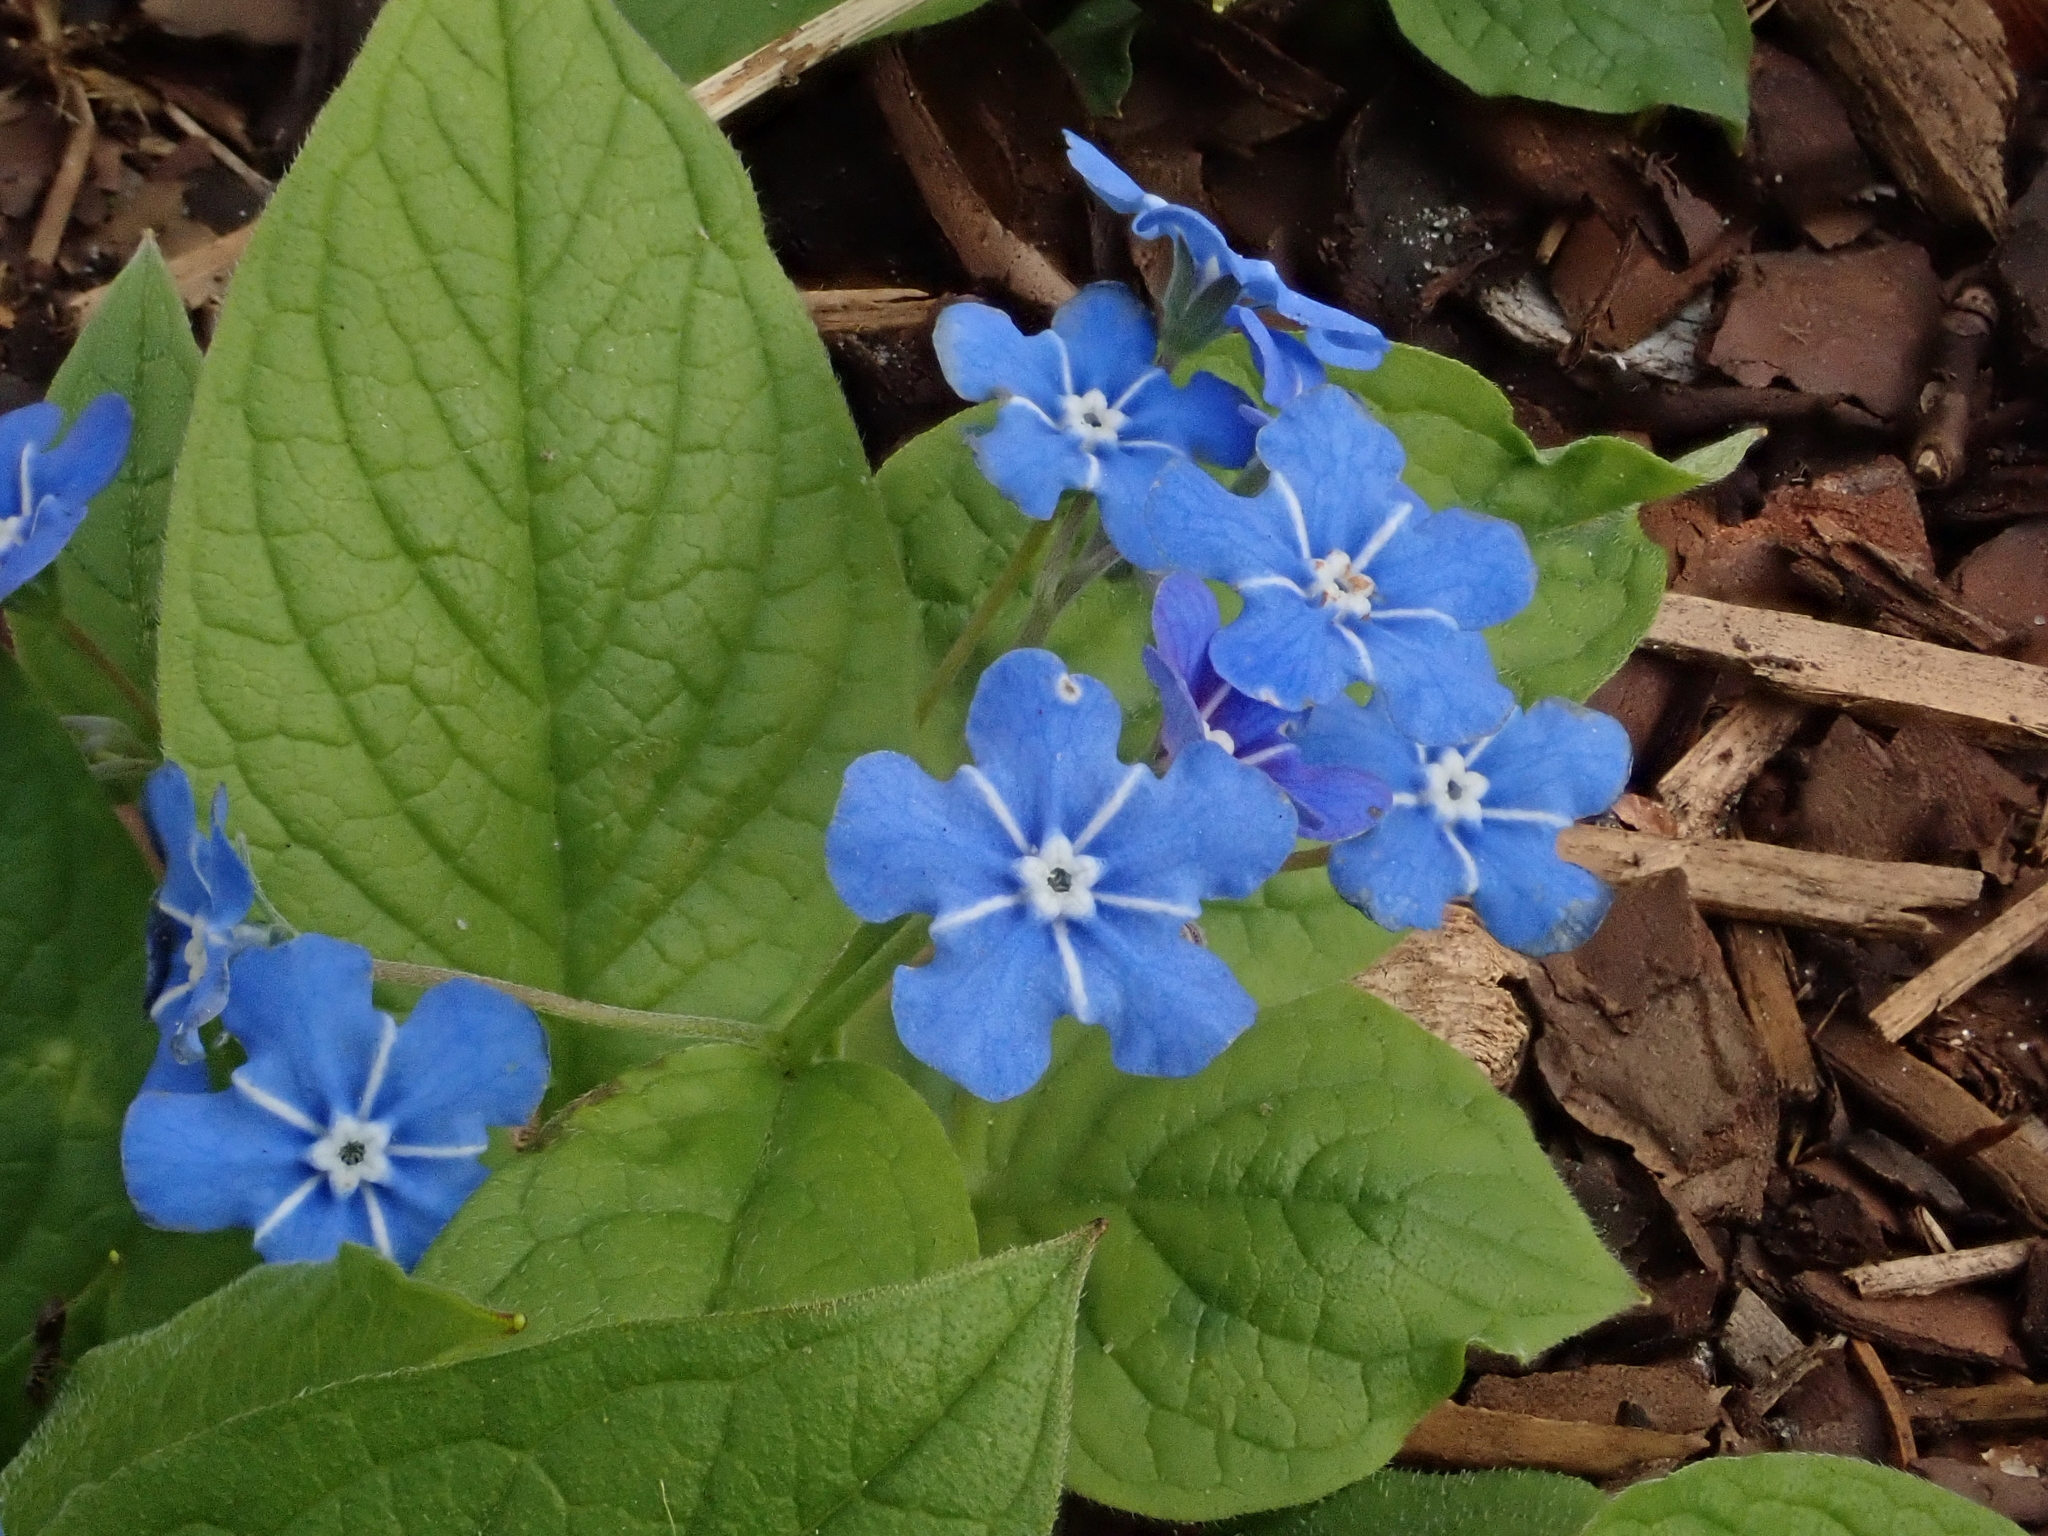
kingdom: Plantae
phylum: Tracheophyta
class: Magnoliopsida
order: Boraginales
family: Boraginaceae
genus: Omphalodes
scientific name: Omphalodes verna
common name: Blue-eyed-mary
